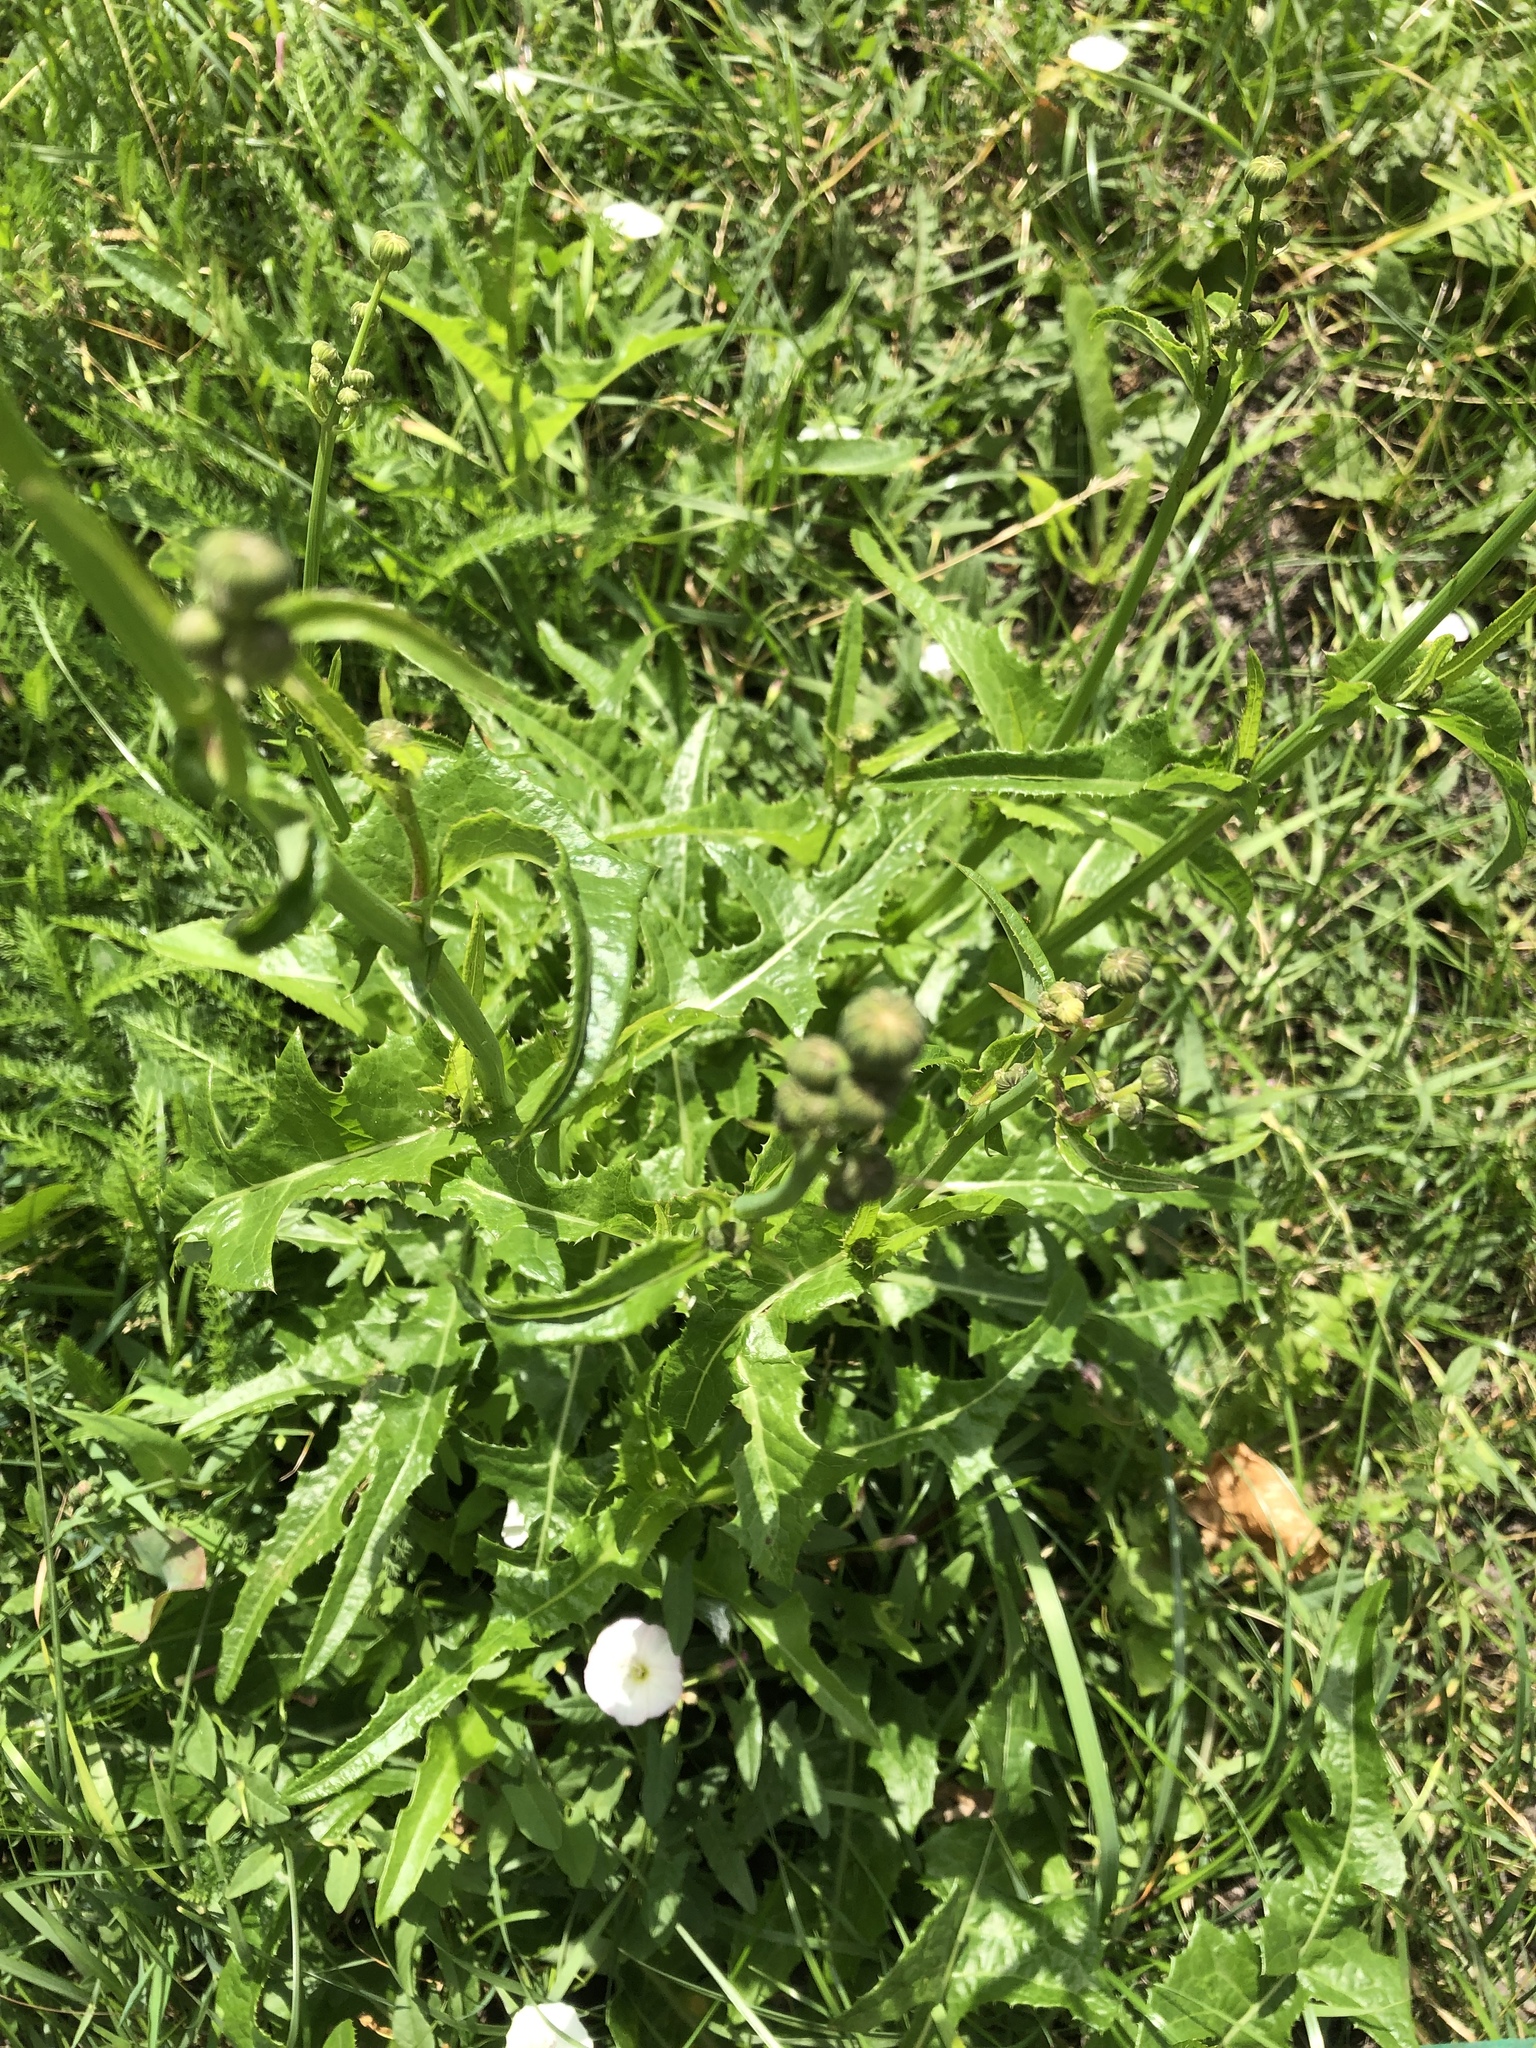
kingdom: Plantae
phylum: Tracheophyta
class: Magnoliopsida
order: Asterales
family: Asteraceae
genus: Sonchus
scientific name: Sonchus arvensis
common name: Perennial sow-thistle
